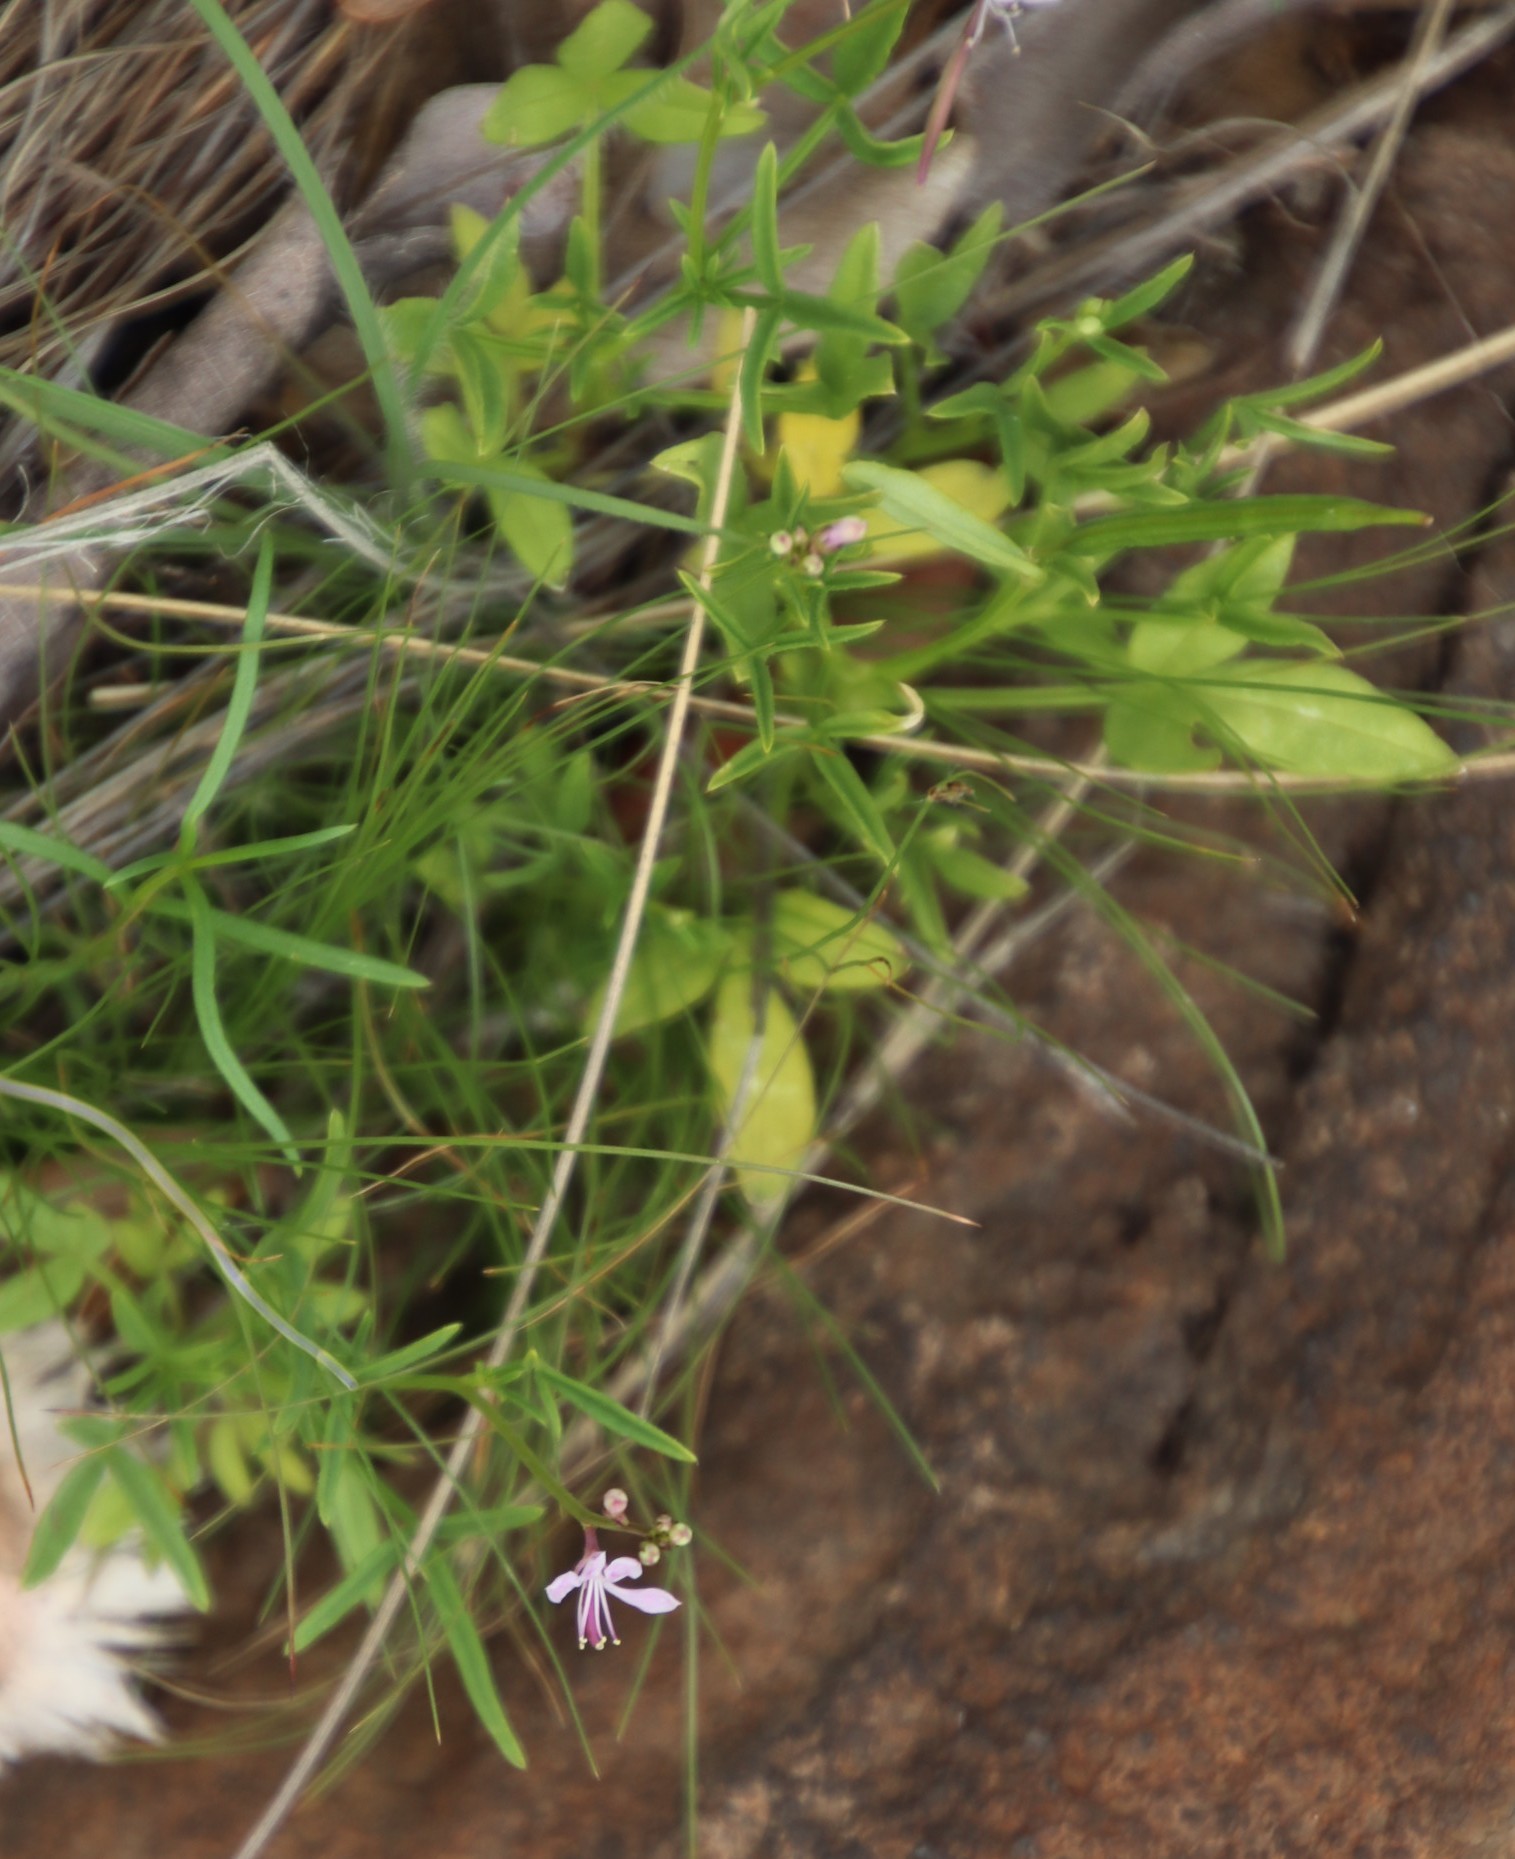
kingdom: Plantae
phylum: Tracheophyta
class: Magnoliopsida
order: Brassicales
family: Cleomaceae
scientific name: Cleomaceae
